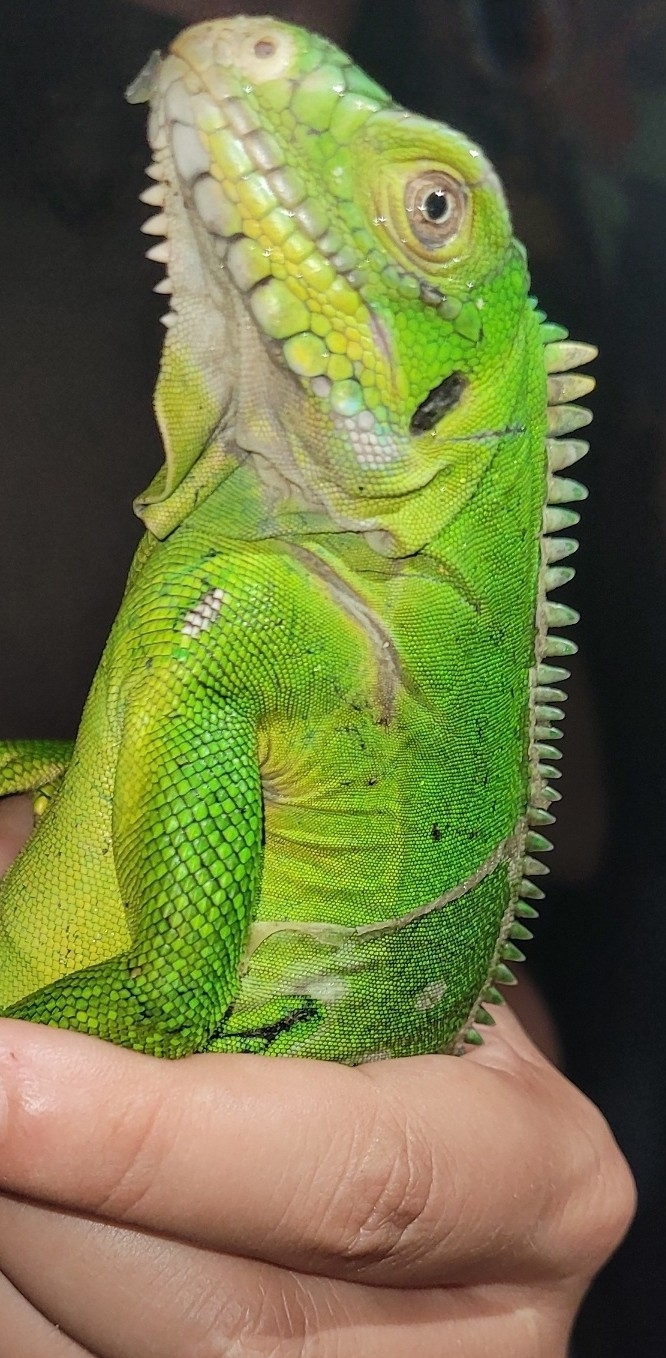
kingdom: Animalia
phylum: Chordata
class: Squamata
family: Iguanidae
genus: Iguana
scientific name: Iguana delicatissima
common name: West indian iguana
